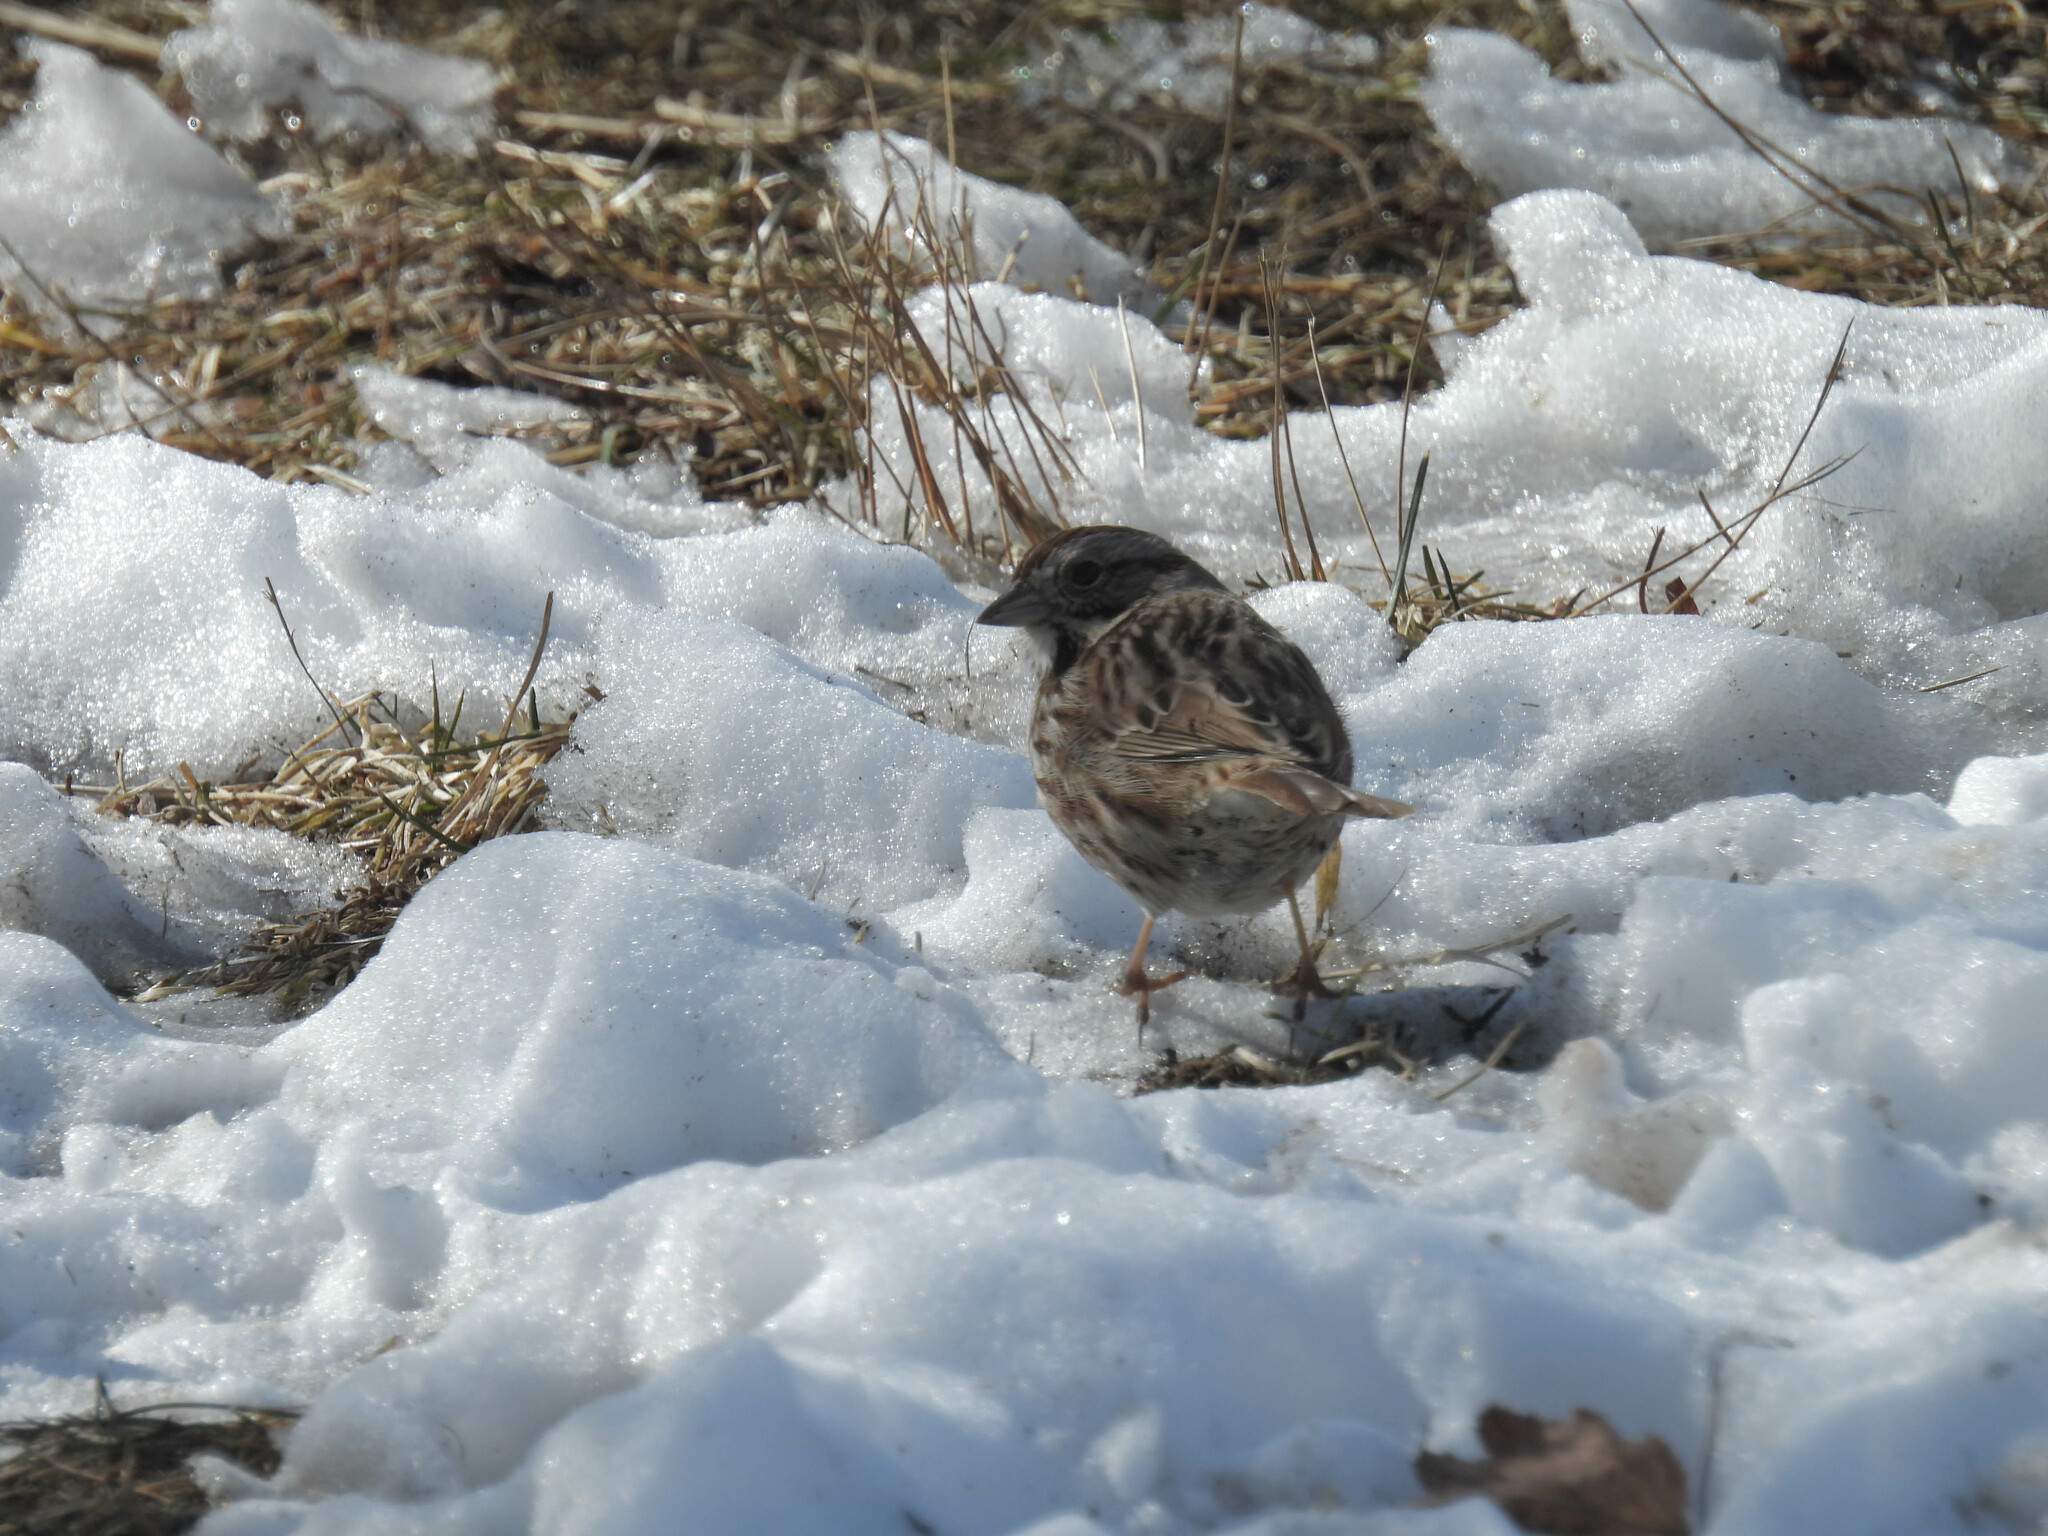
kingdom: Animalia
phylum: Chordata
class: Aves
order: Passeriformes
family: Passerellidae
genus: Melospiza
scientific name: Melospiza melodia
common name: Song sparrow
